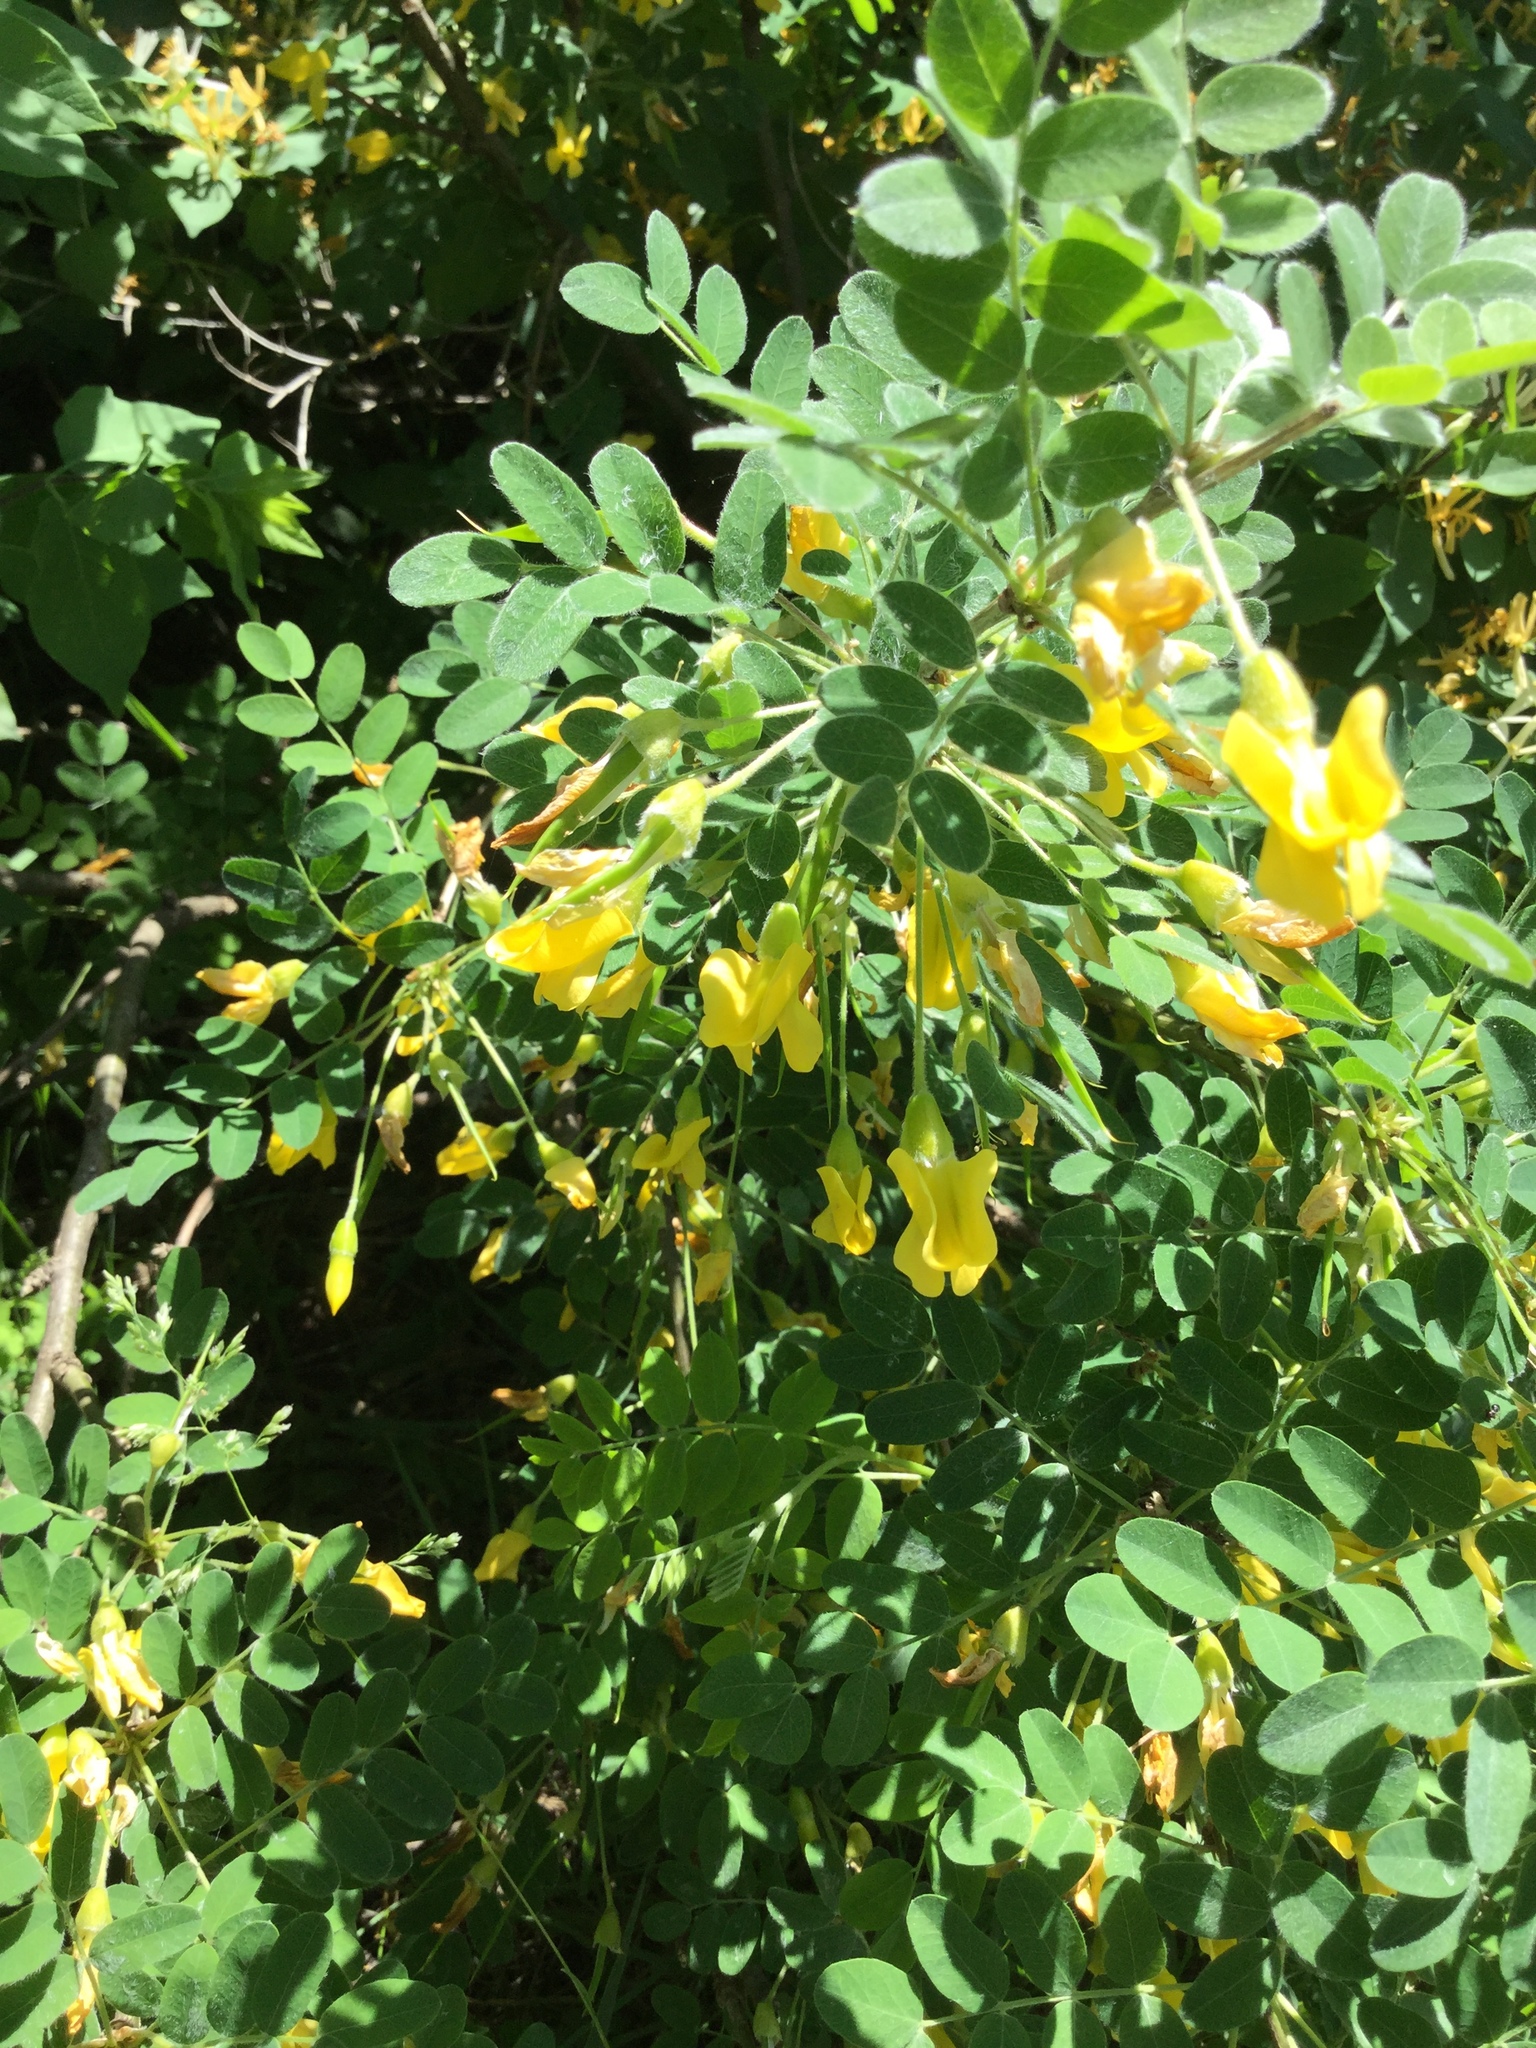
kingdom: Plantae
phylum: Tracheophyta
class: Magnoliopsida
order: Fabales
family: Fabaceae
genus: Caragana
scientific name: Caragana arborescens
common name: Siberian peashrub
